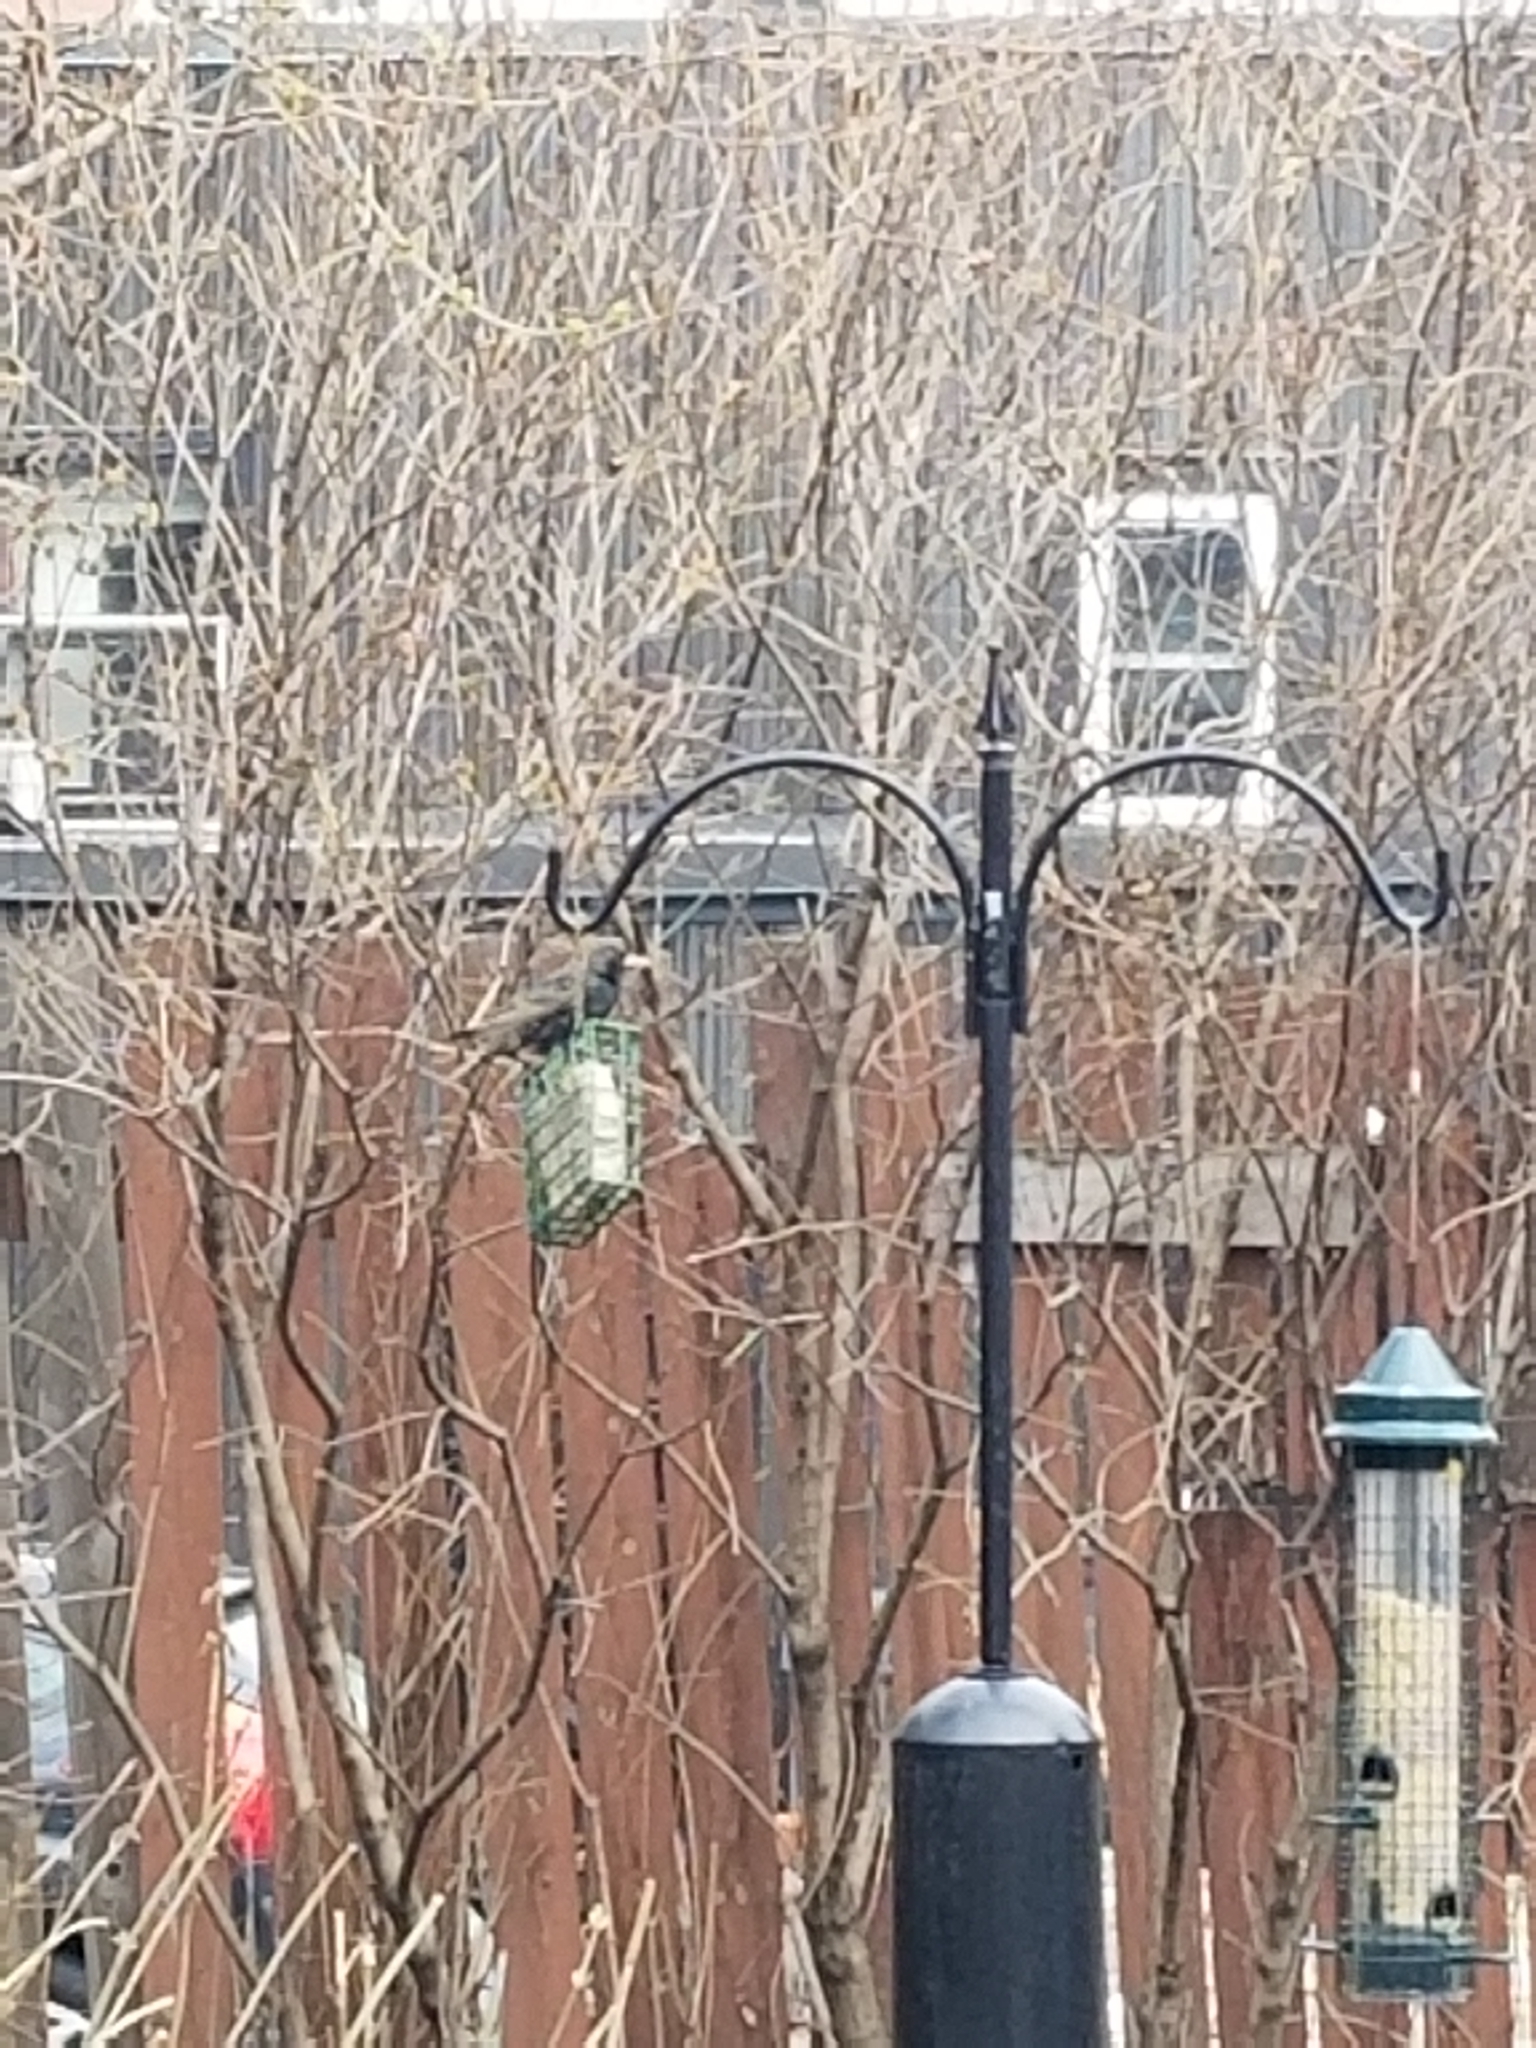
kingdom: Animalia
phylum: Chordata
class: Aves
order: Passeriformes
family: Sturnidae
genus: Sturnus
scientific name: Sturnus vulgaris
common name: Common starling
